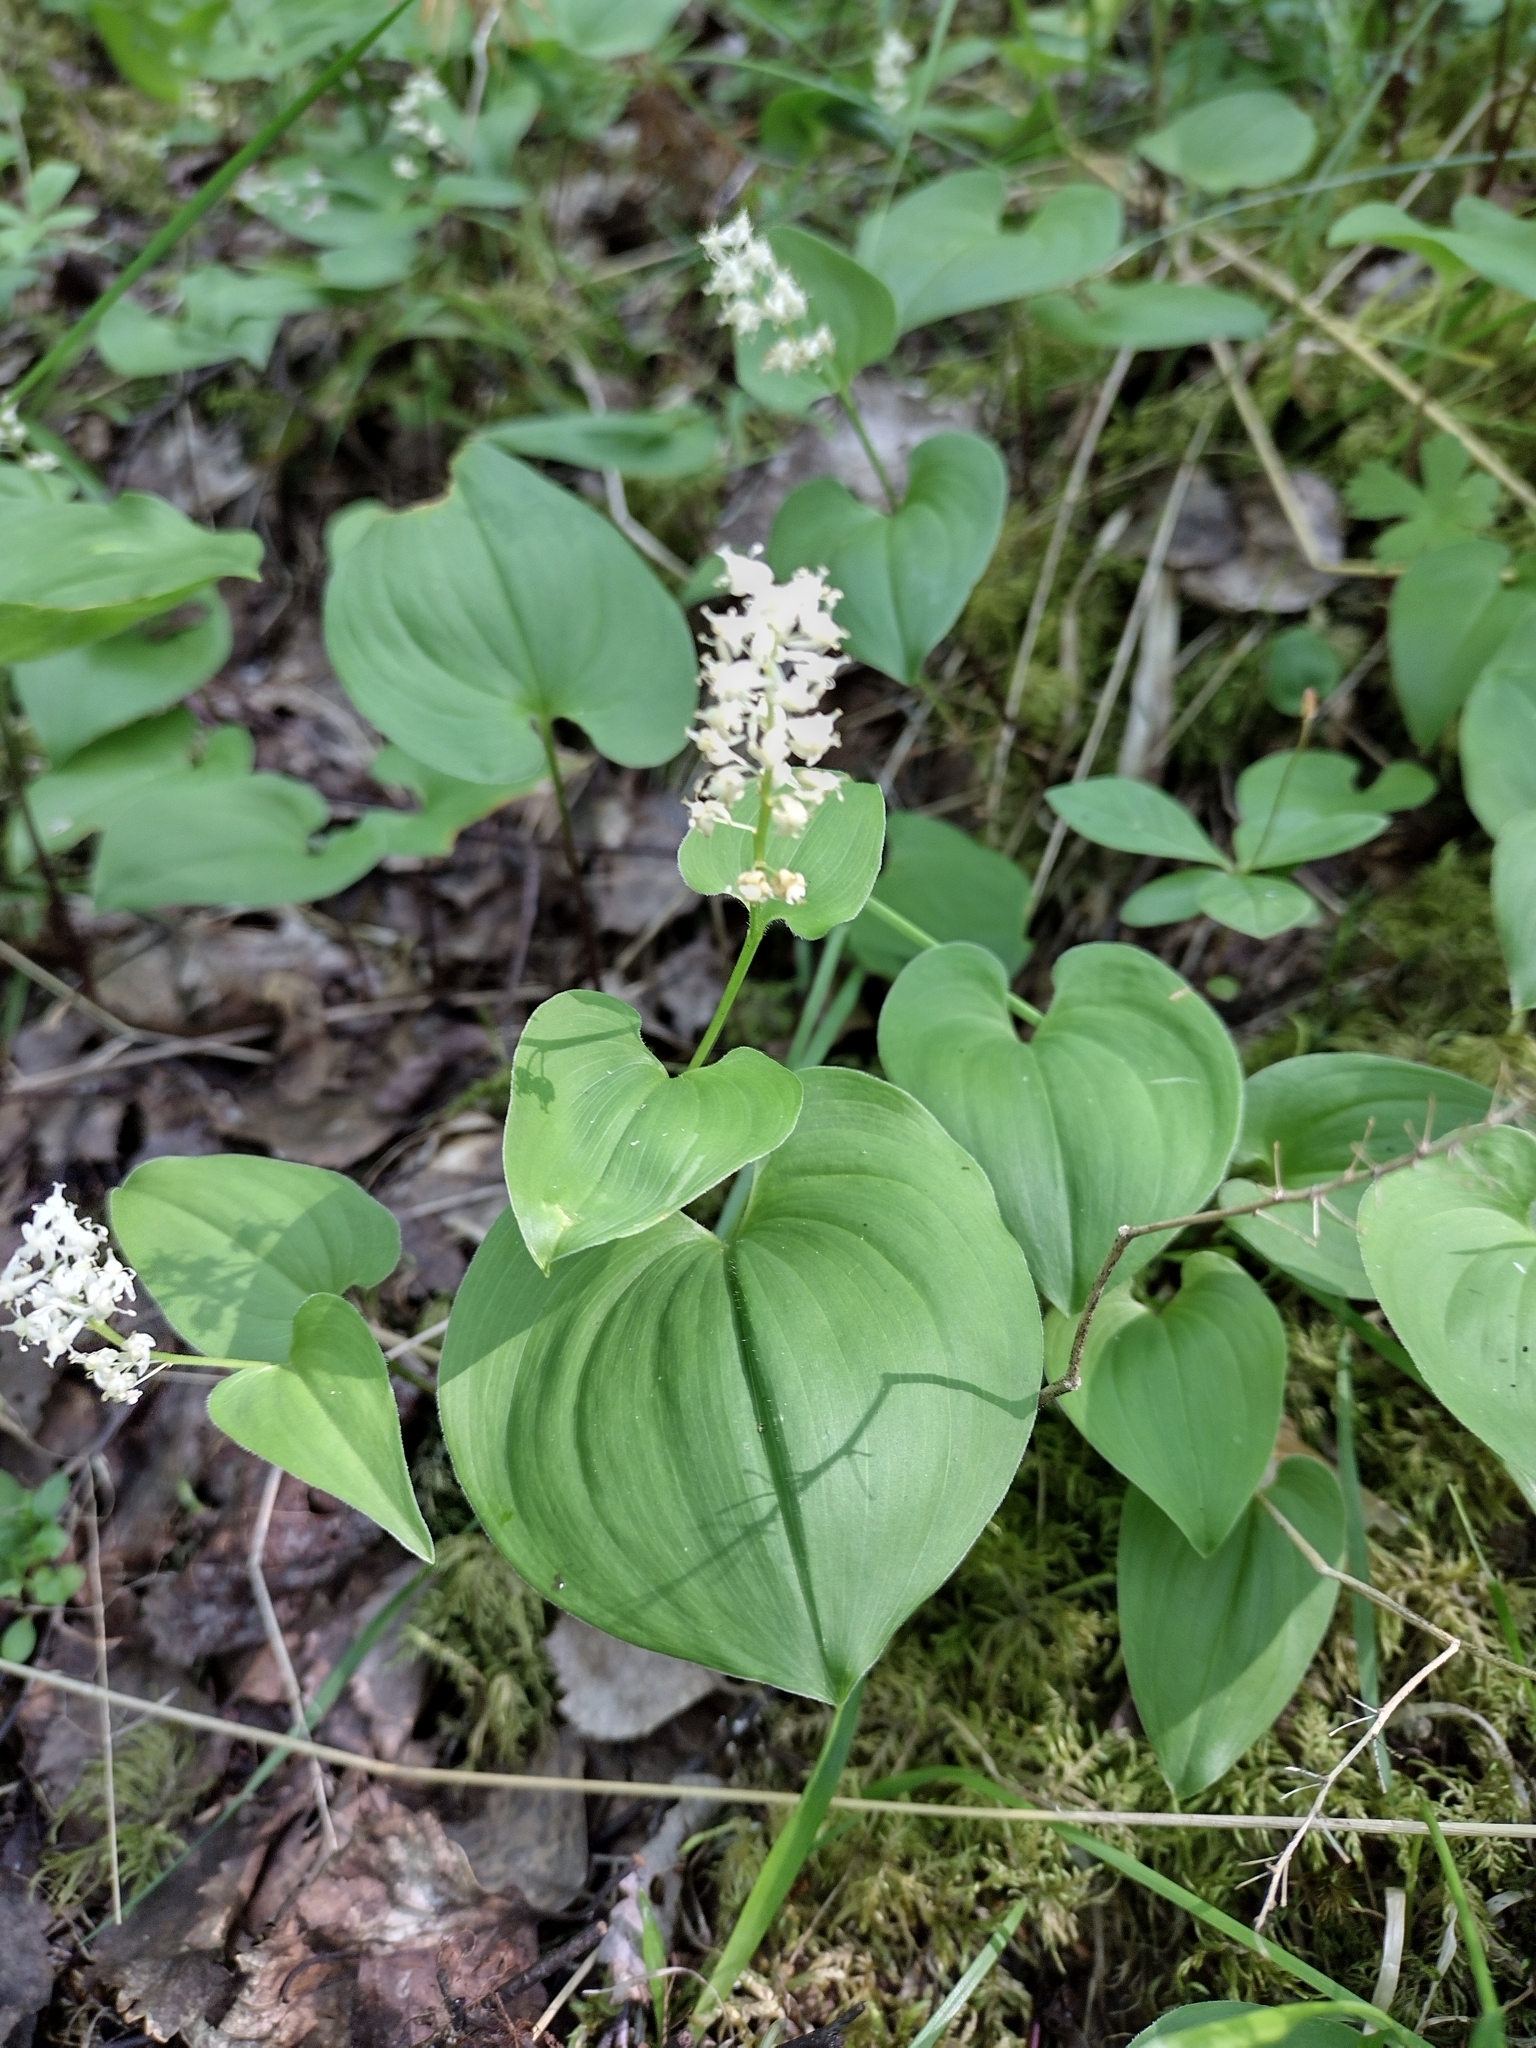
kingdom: Plantae
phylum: Tracheophyta
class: Liliopsida
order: Asparagales
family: Asparagaceae
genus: Maianthemum
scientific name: Maianthemum bifolium
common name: May lily
